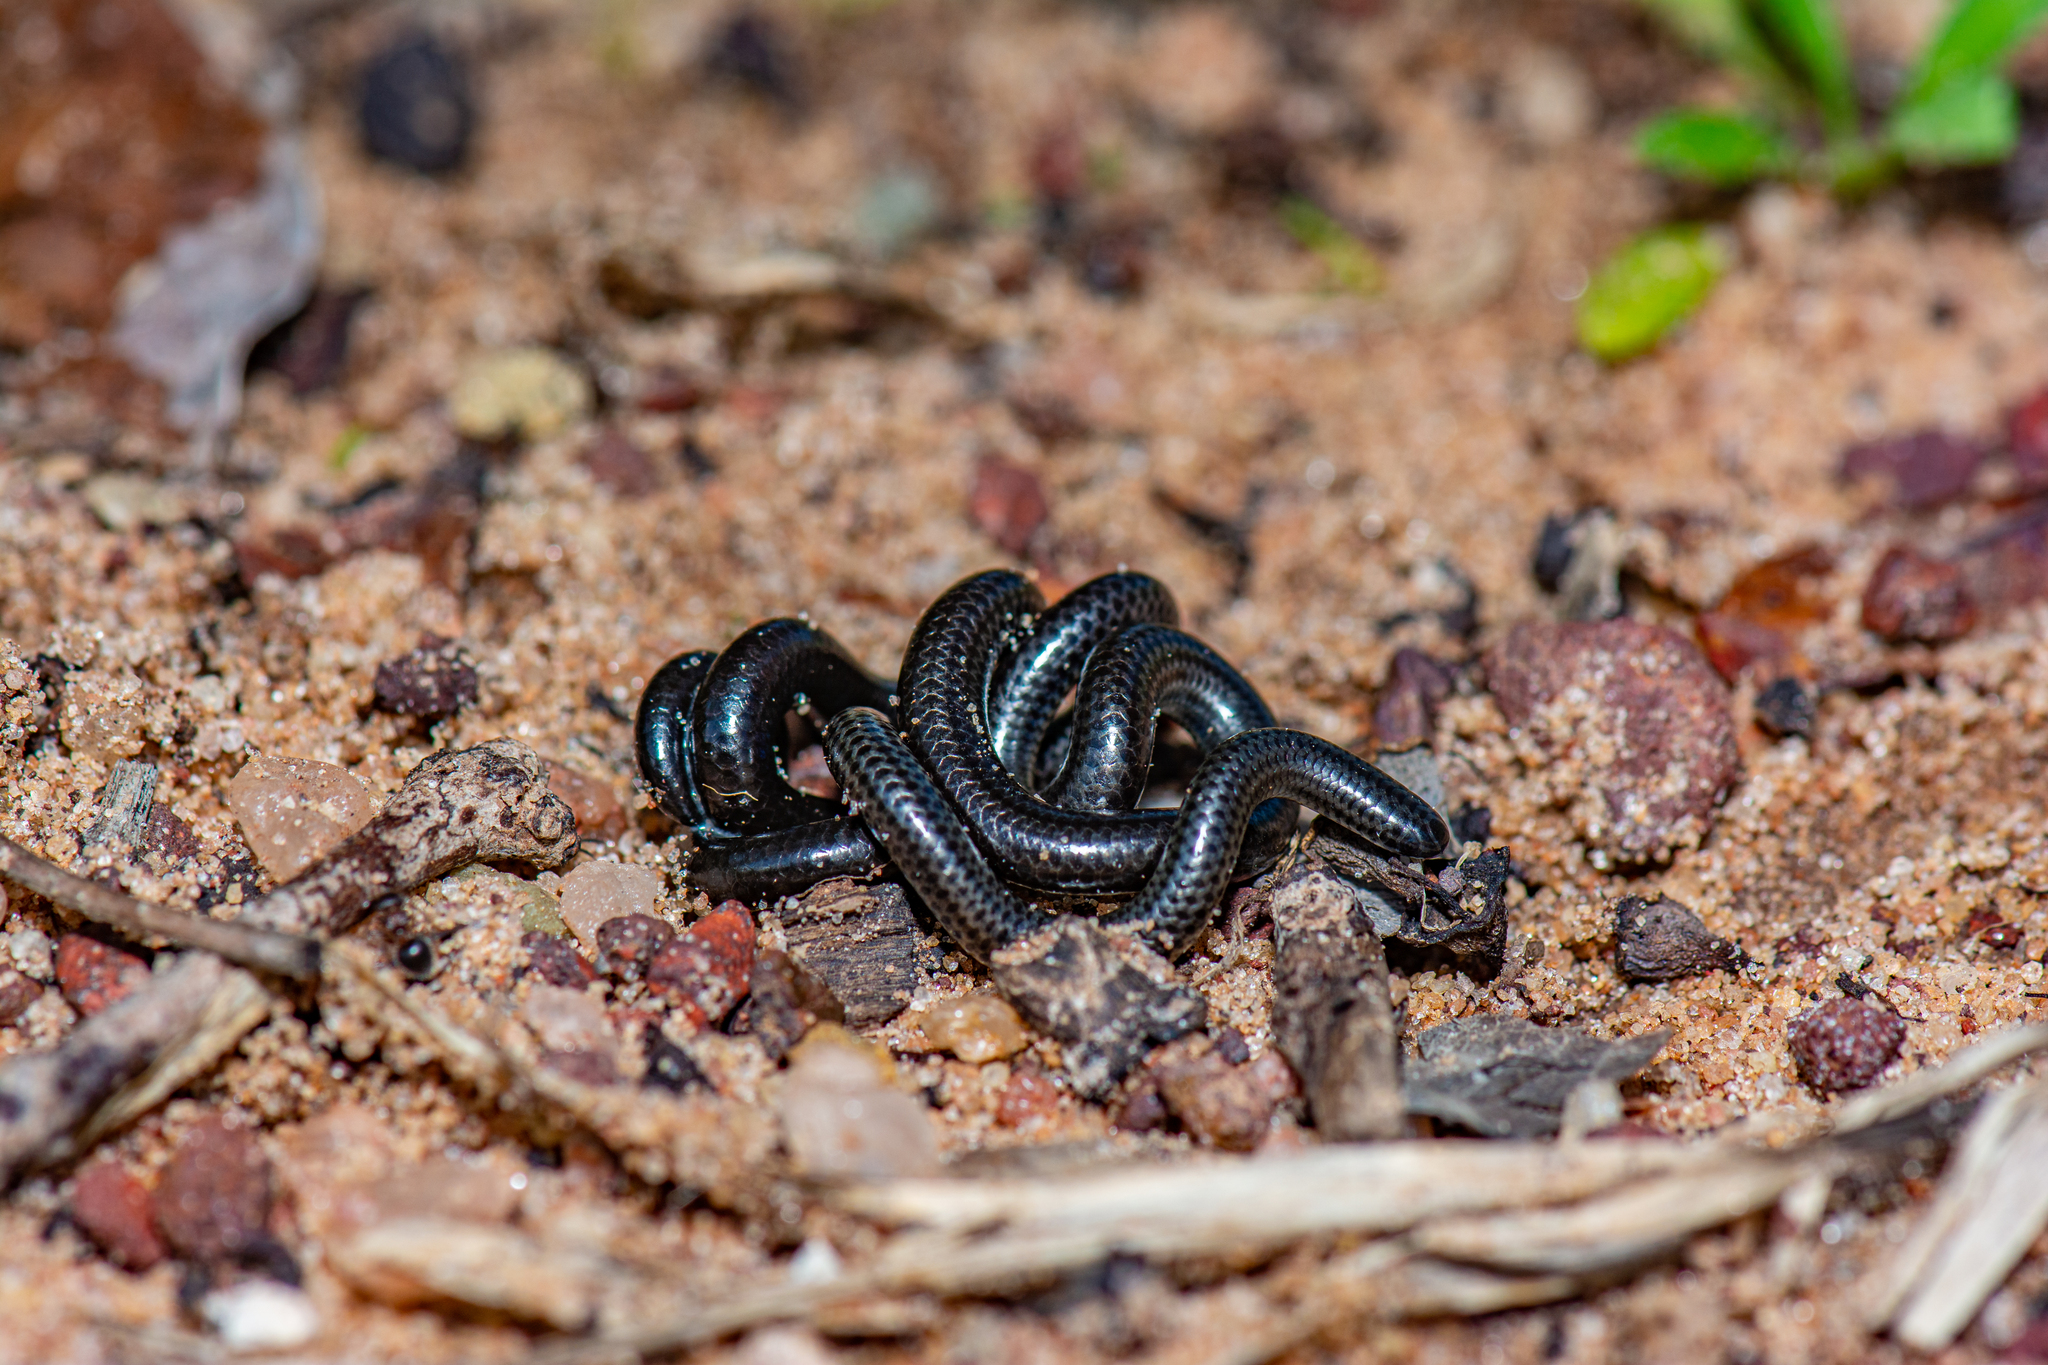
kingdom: Animalia
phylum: Chordata
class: Squamata
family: Leptotyphlopidae
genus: Leptotyphlops
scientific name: Leptotyphlops macrops
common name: Goggle-eyed worm snake
